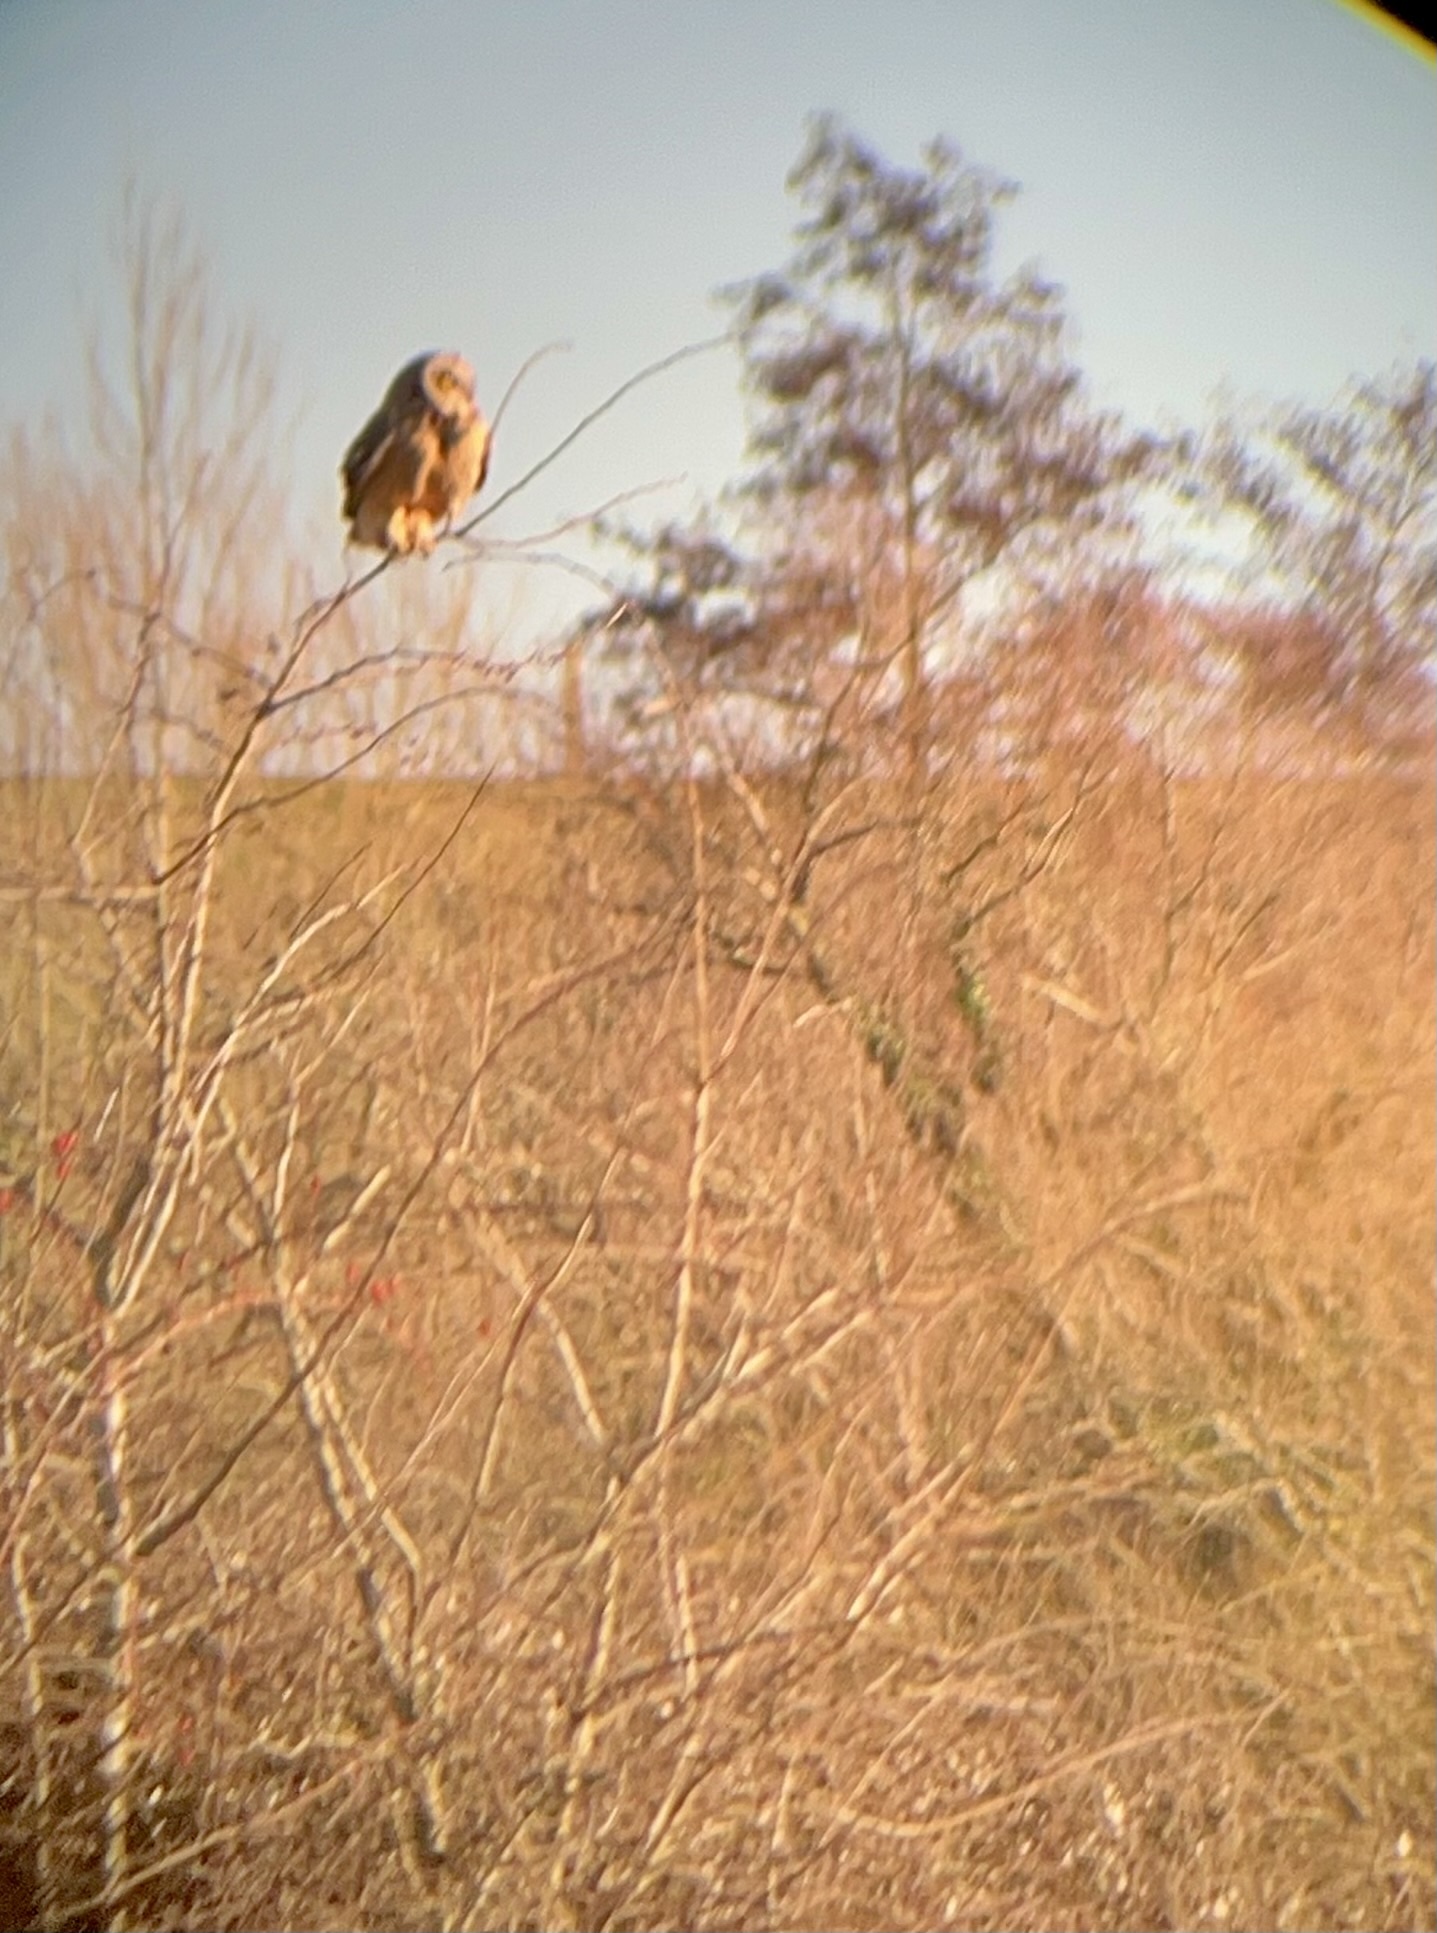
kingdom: Animalia
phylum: Chordata
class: Aves
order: Strigiformes
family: Strigidae
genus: Asio
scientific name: Asio flammeus
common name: Short-eared owl
